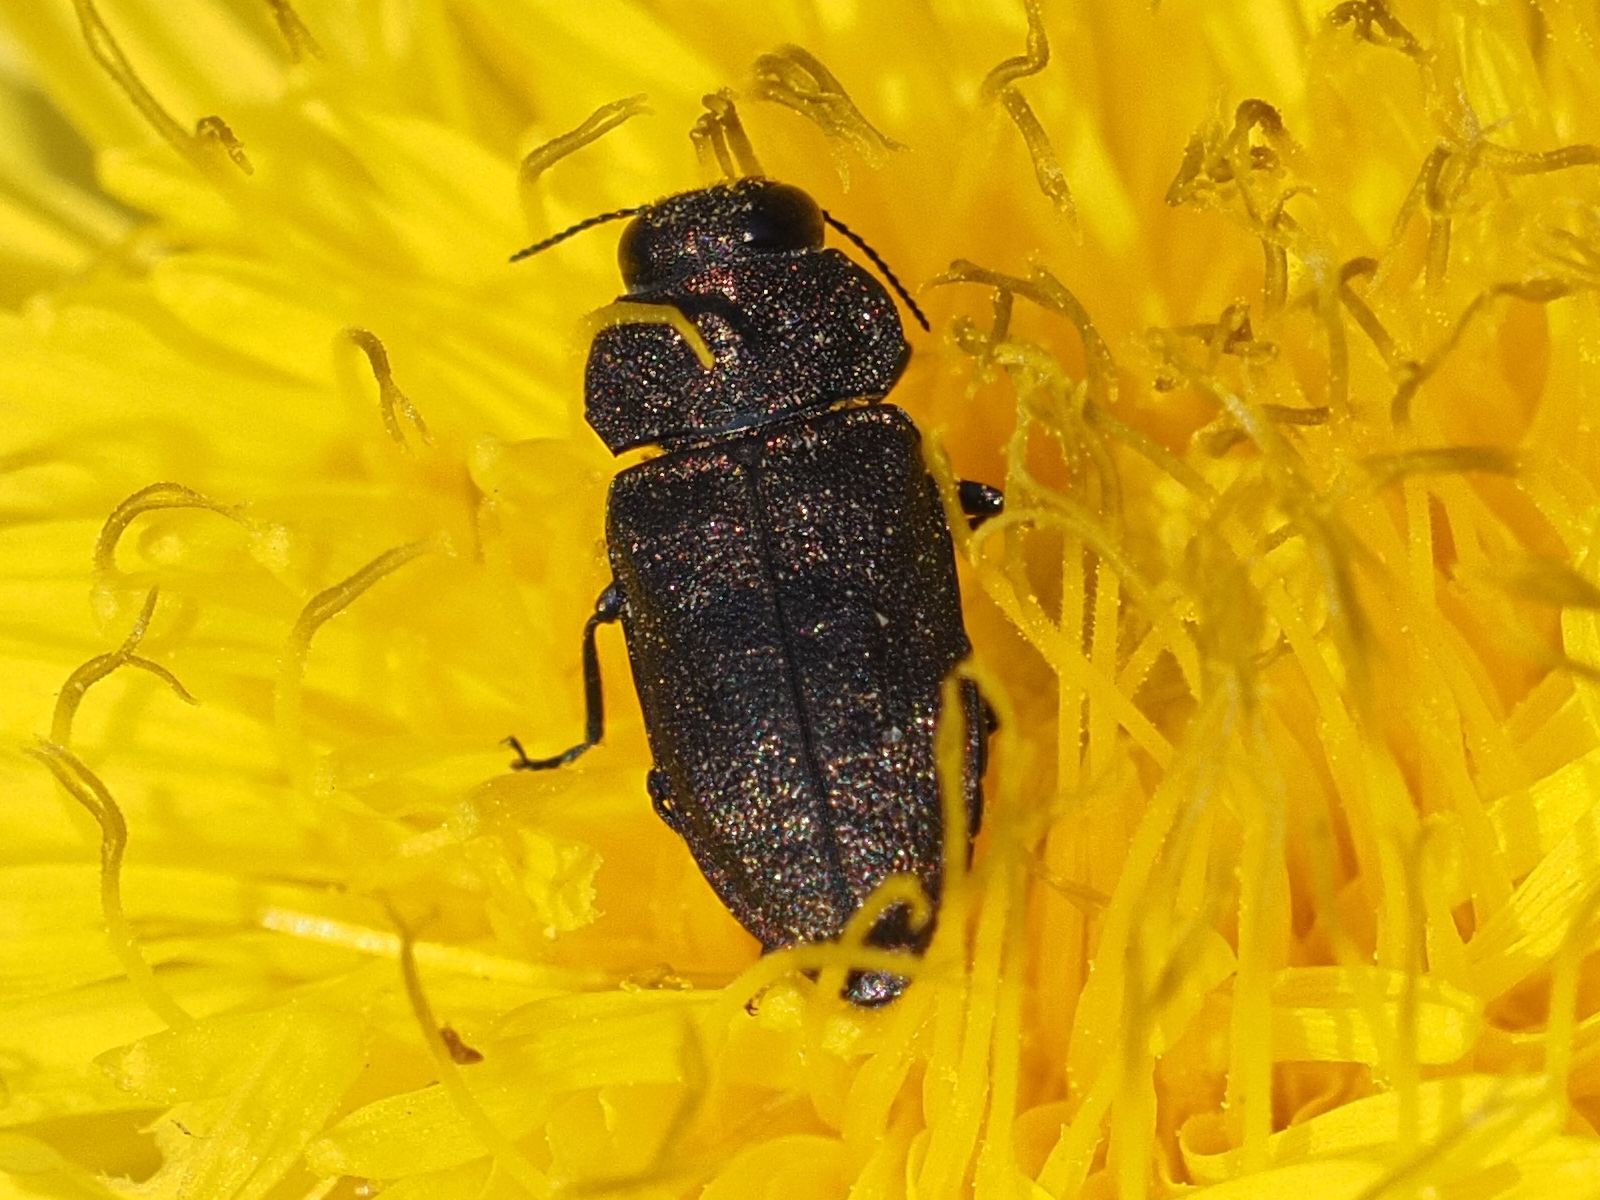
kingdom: Animalia
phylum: Arthropoda
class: Insecta
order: Coleoptera
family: Buprestidae
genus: Anthaxia
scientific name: Anthaxia helvetica
